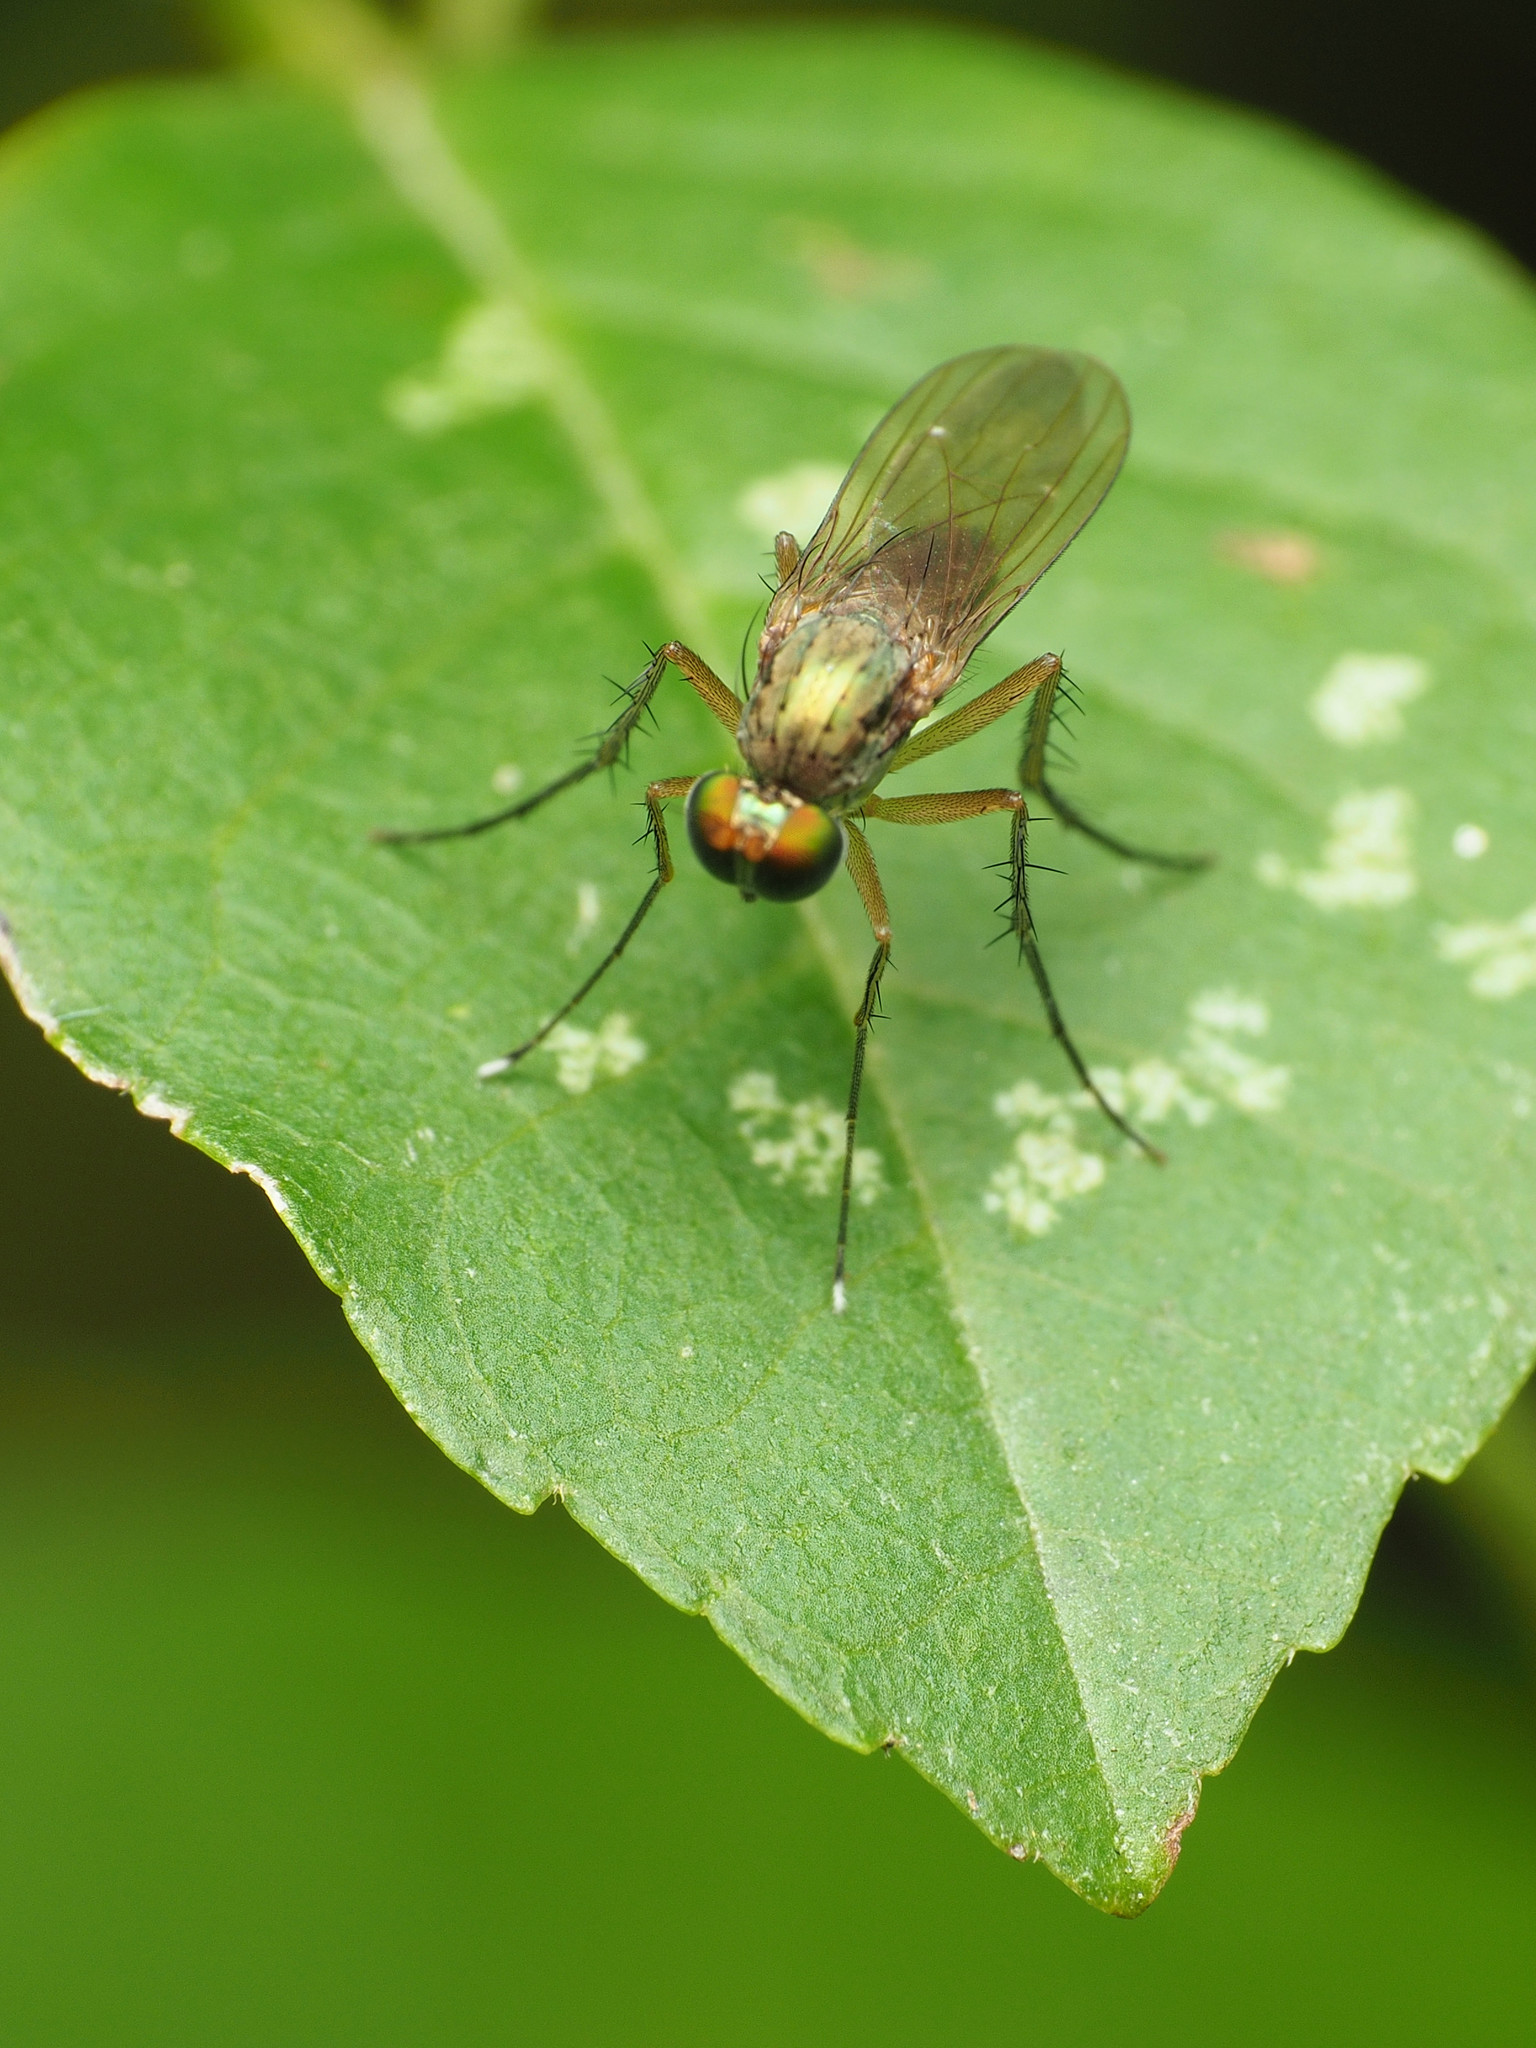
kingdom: Animalia
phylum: Arthropoda
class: Insecta
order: Diptera
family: Dolichopodidae
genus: Dolichopus
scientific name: Dolichopus funditor
